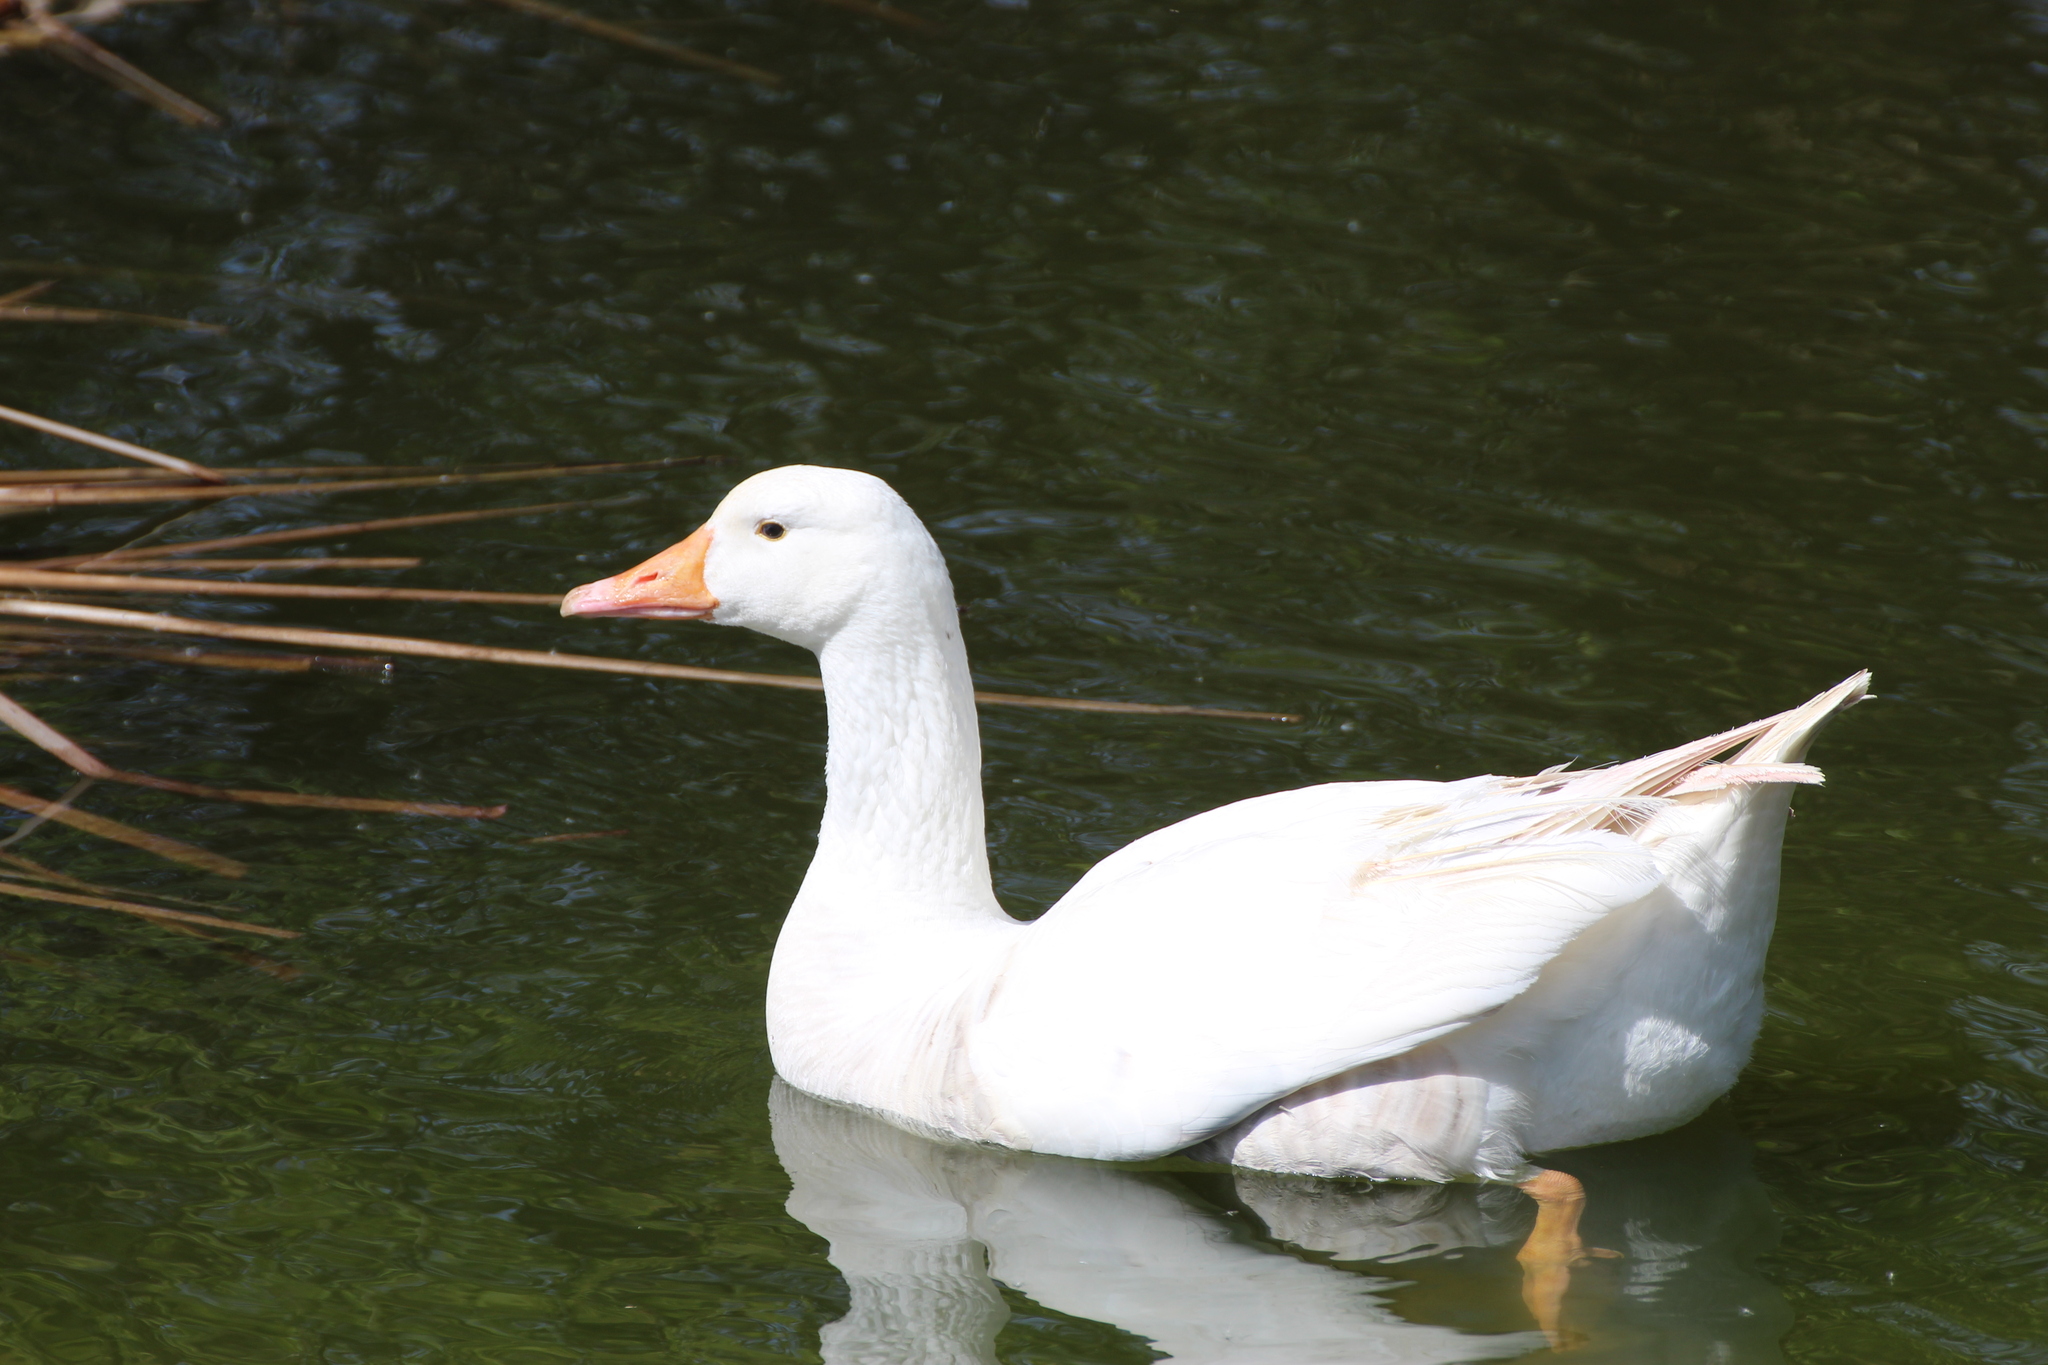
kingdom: Animalia
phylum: Chordata
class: Aves
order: Anseriformes
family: Anatidae
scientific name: Anatidae
